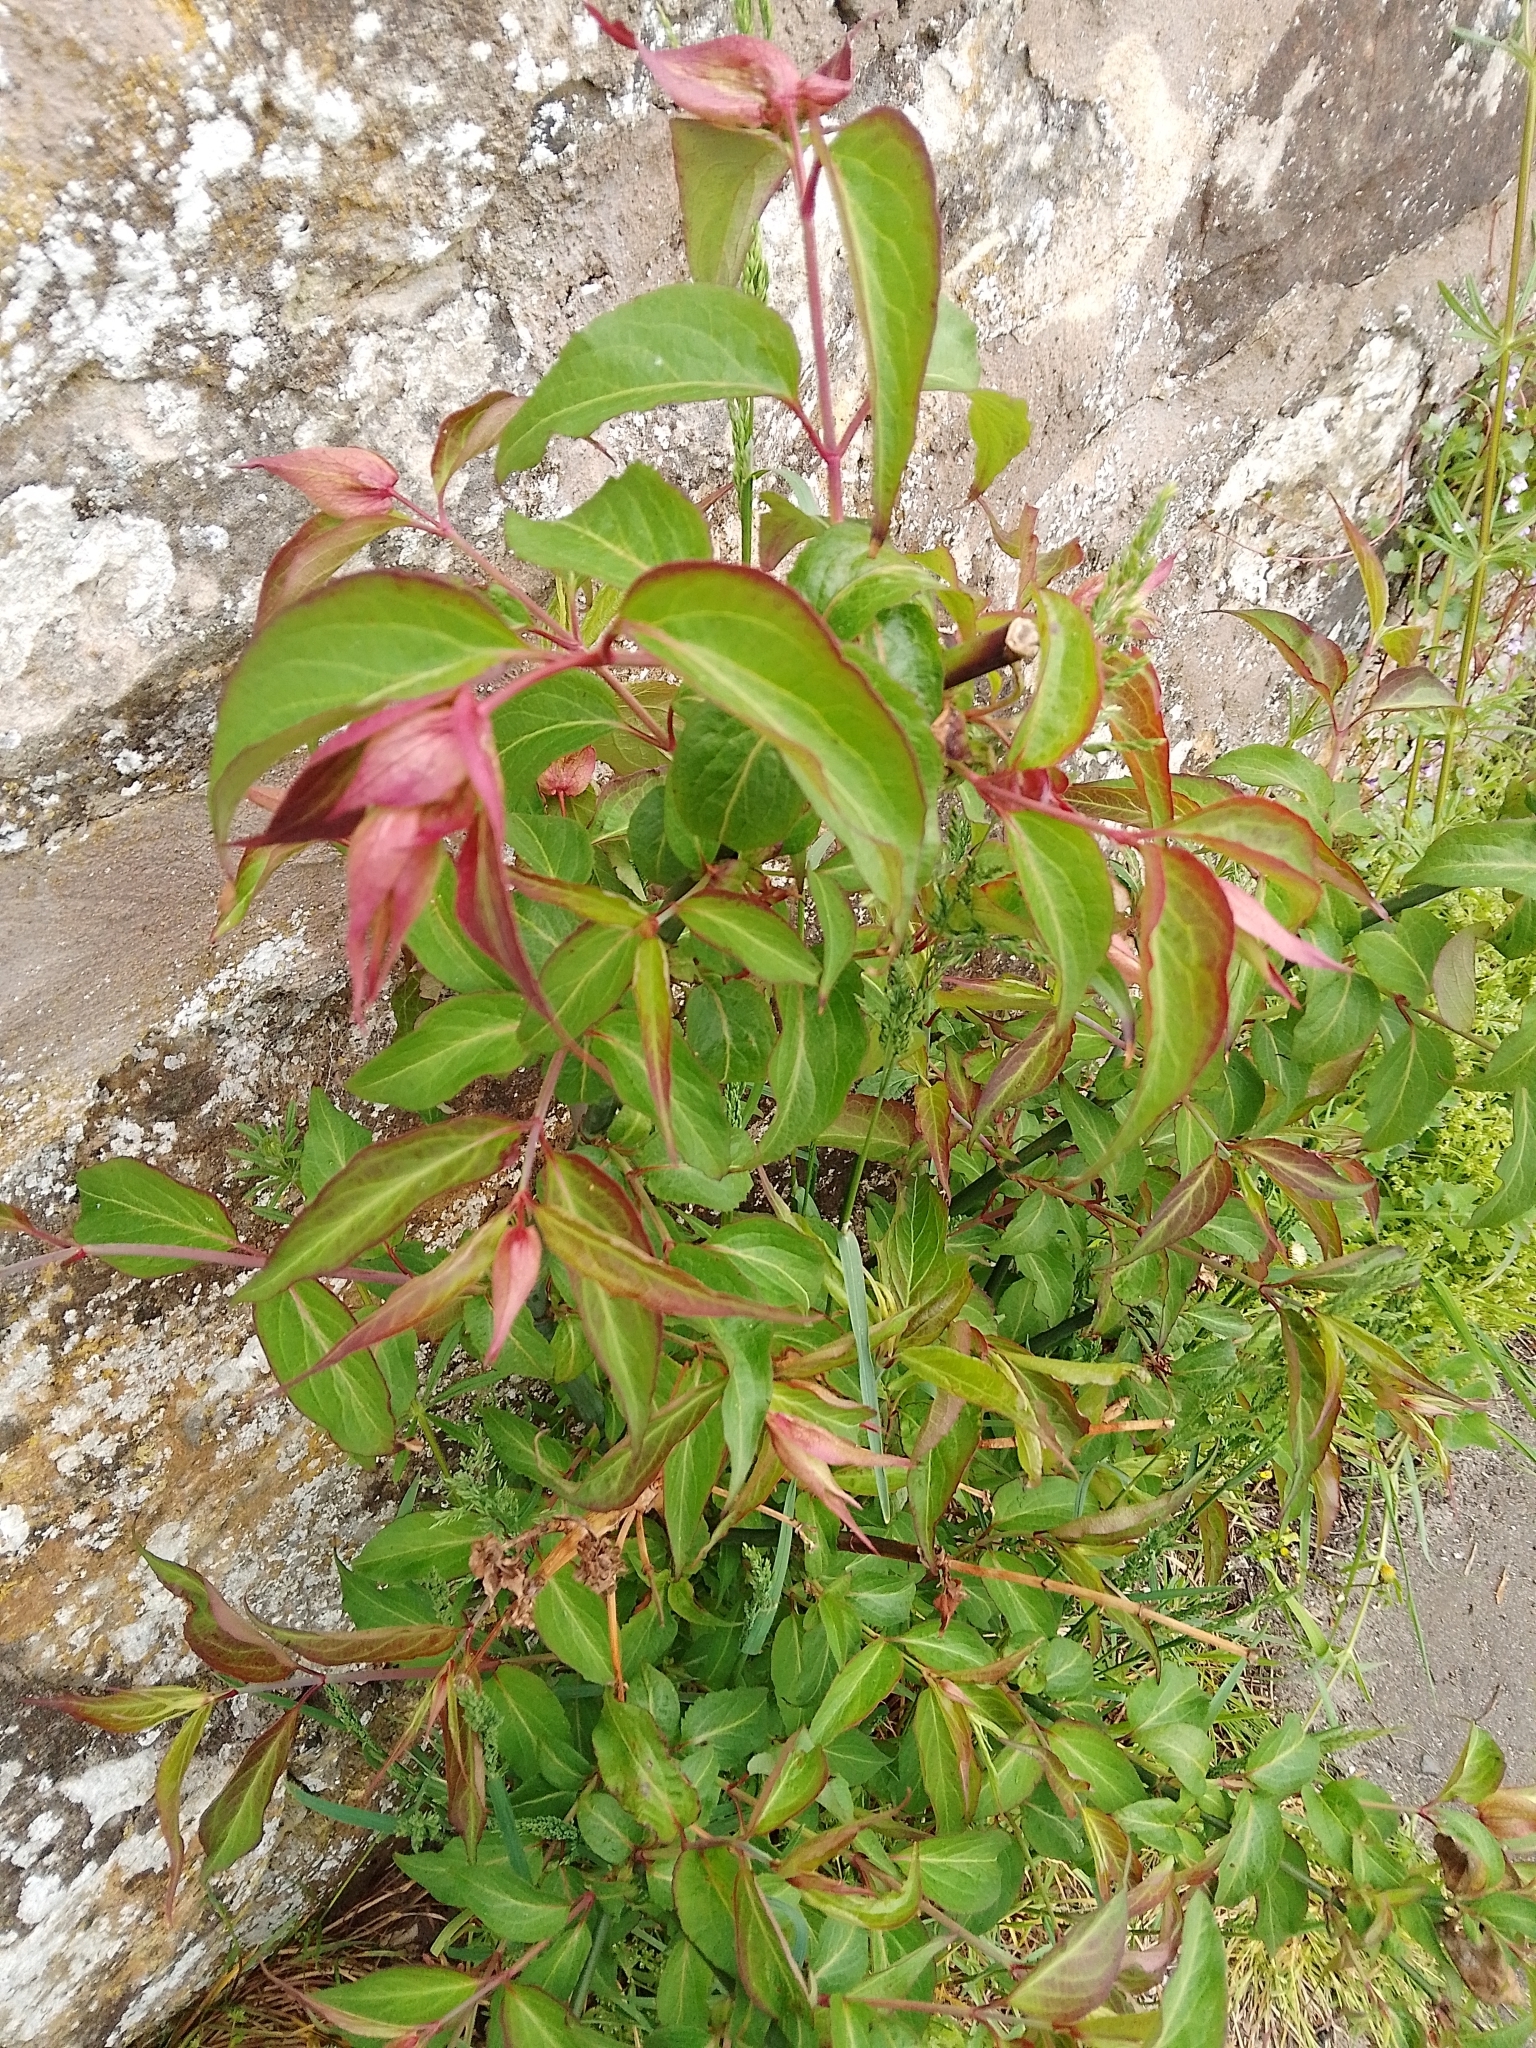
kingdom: Plantae
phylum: Tracheophyta
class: Magnoliopsida
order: Dipsacales
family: Caprifoliaceae
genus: Leycesteria
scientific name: Leycesteria formosa
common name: Himalayan honeysuckle
